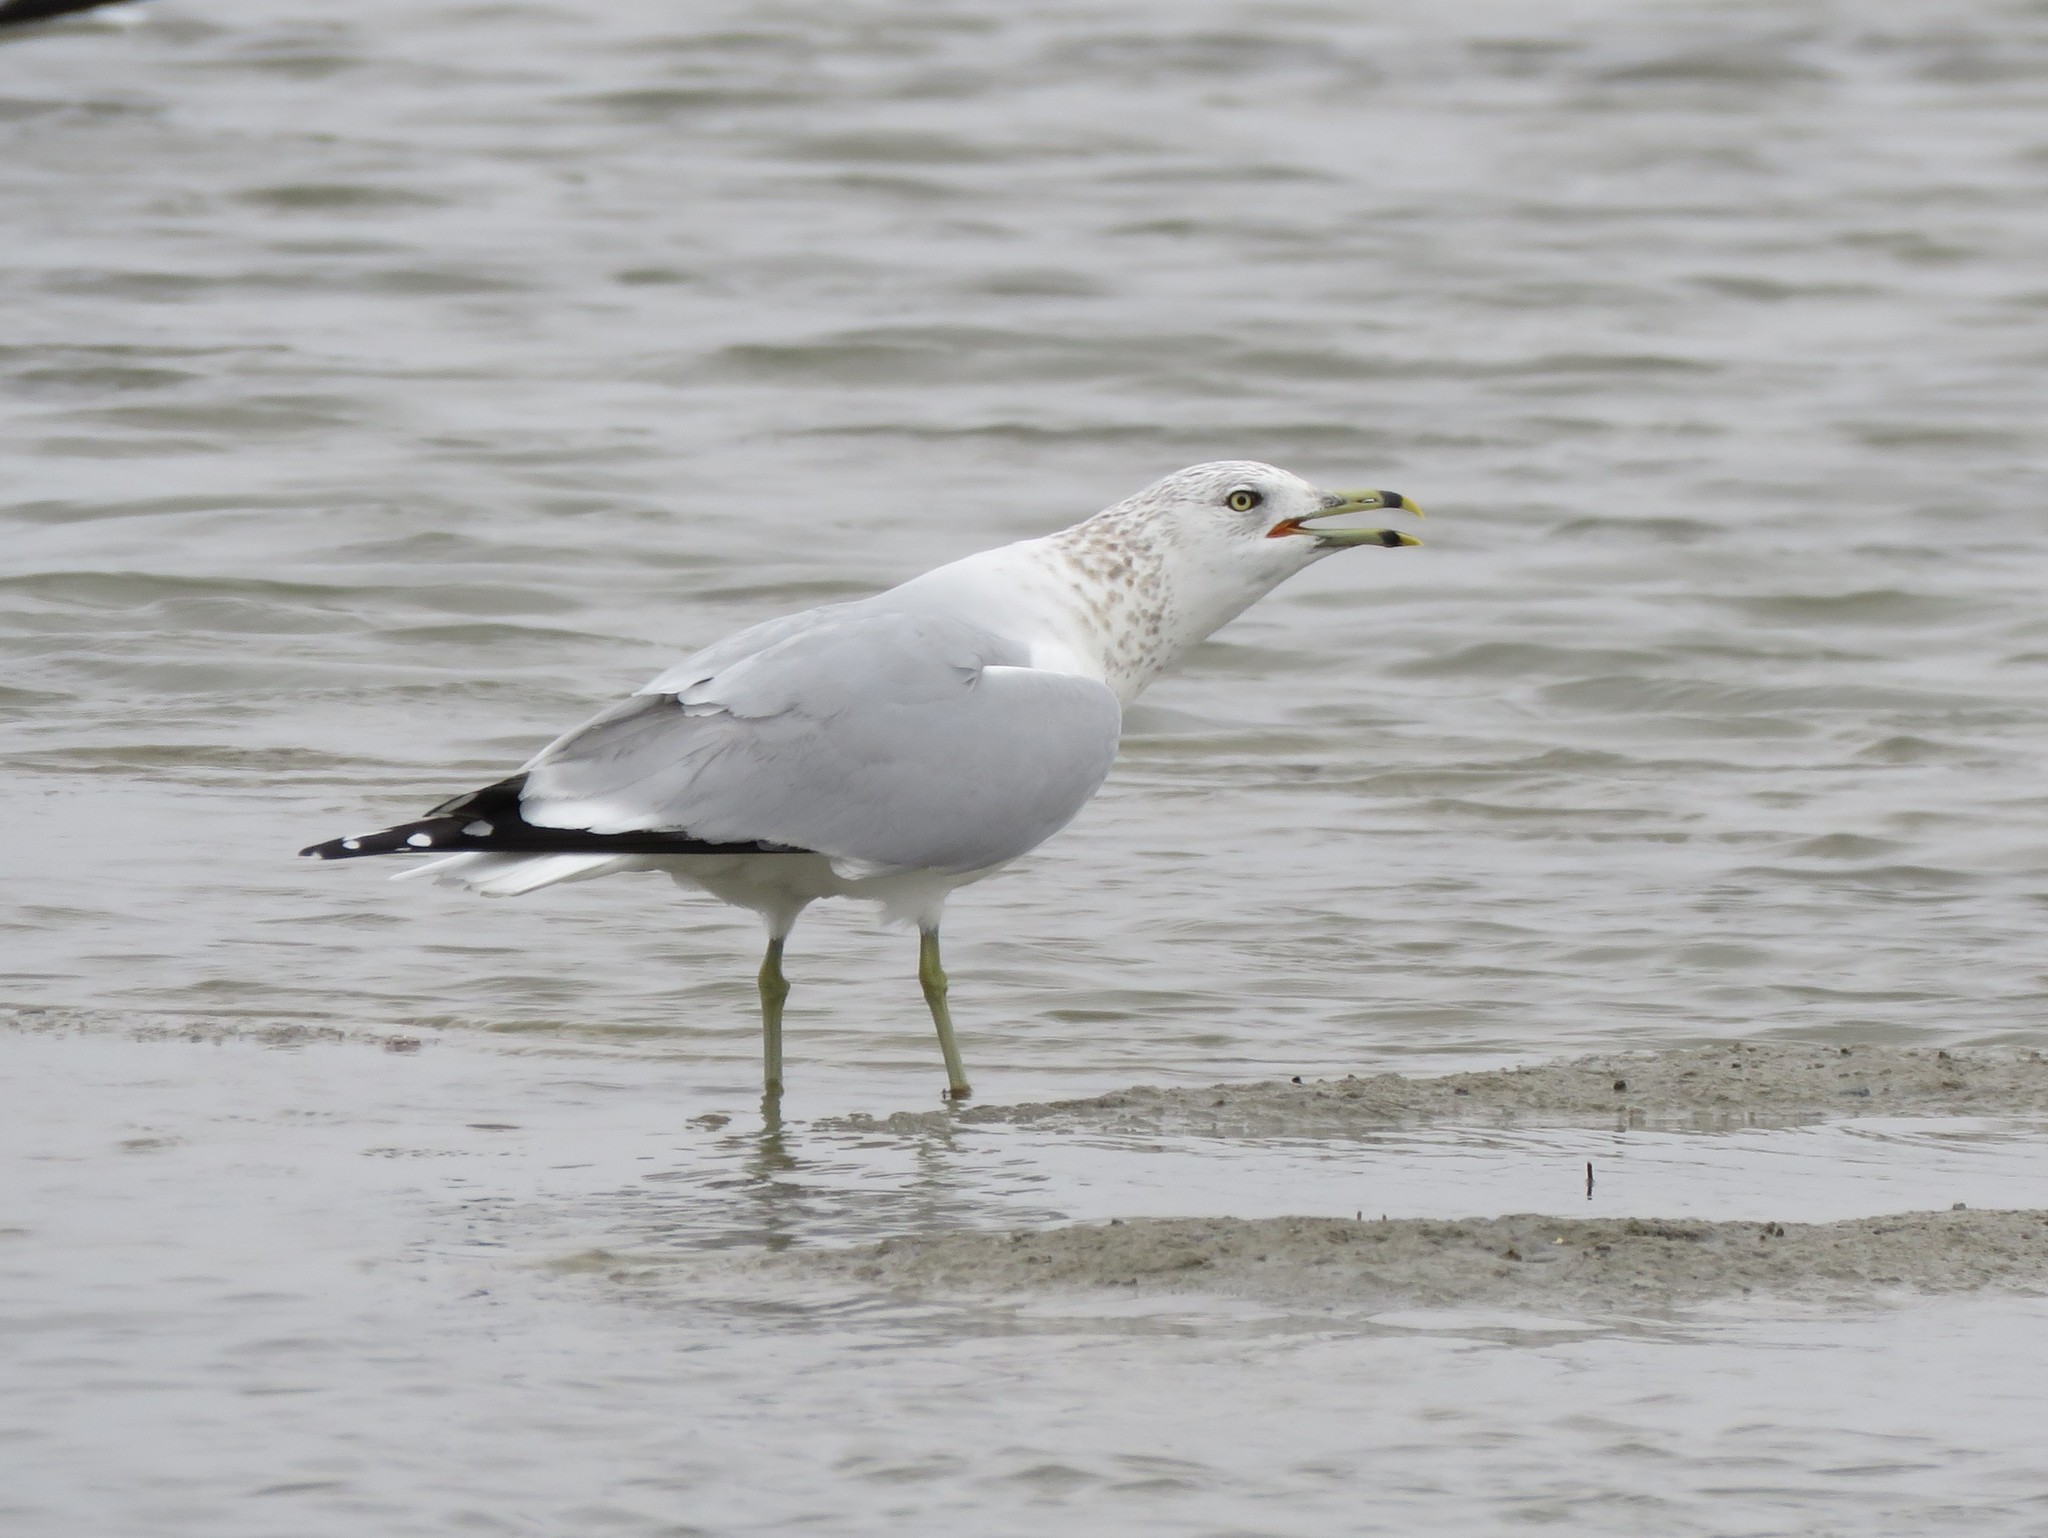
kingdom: Animalia
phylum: Chordata
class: Aves
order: Charadriiformes
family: Laridae
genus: Larus
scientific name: Larus delawarensis
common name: Ring-billed gull
